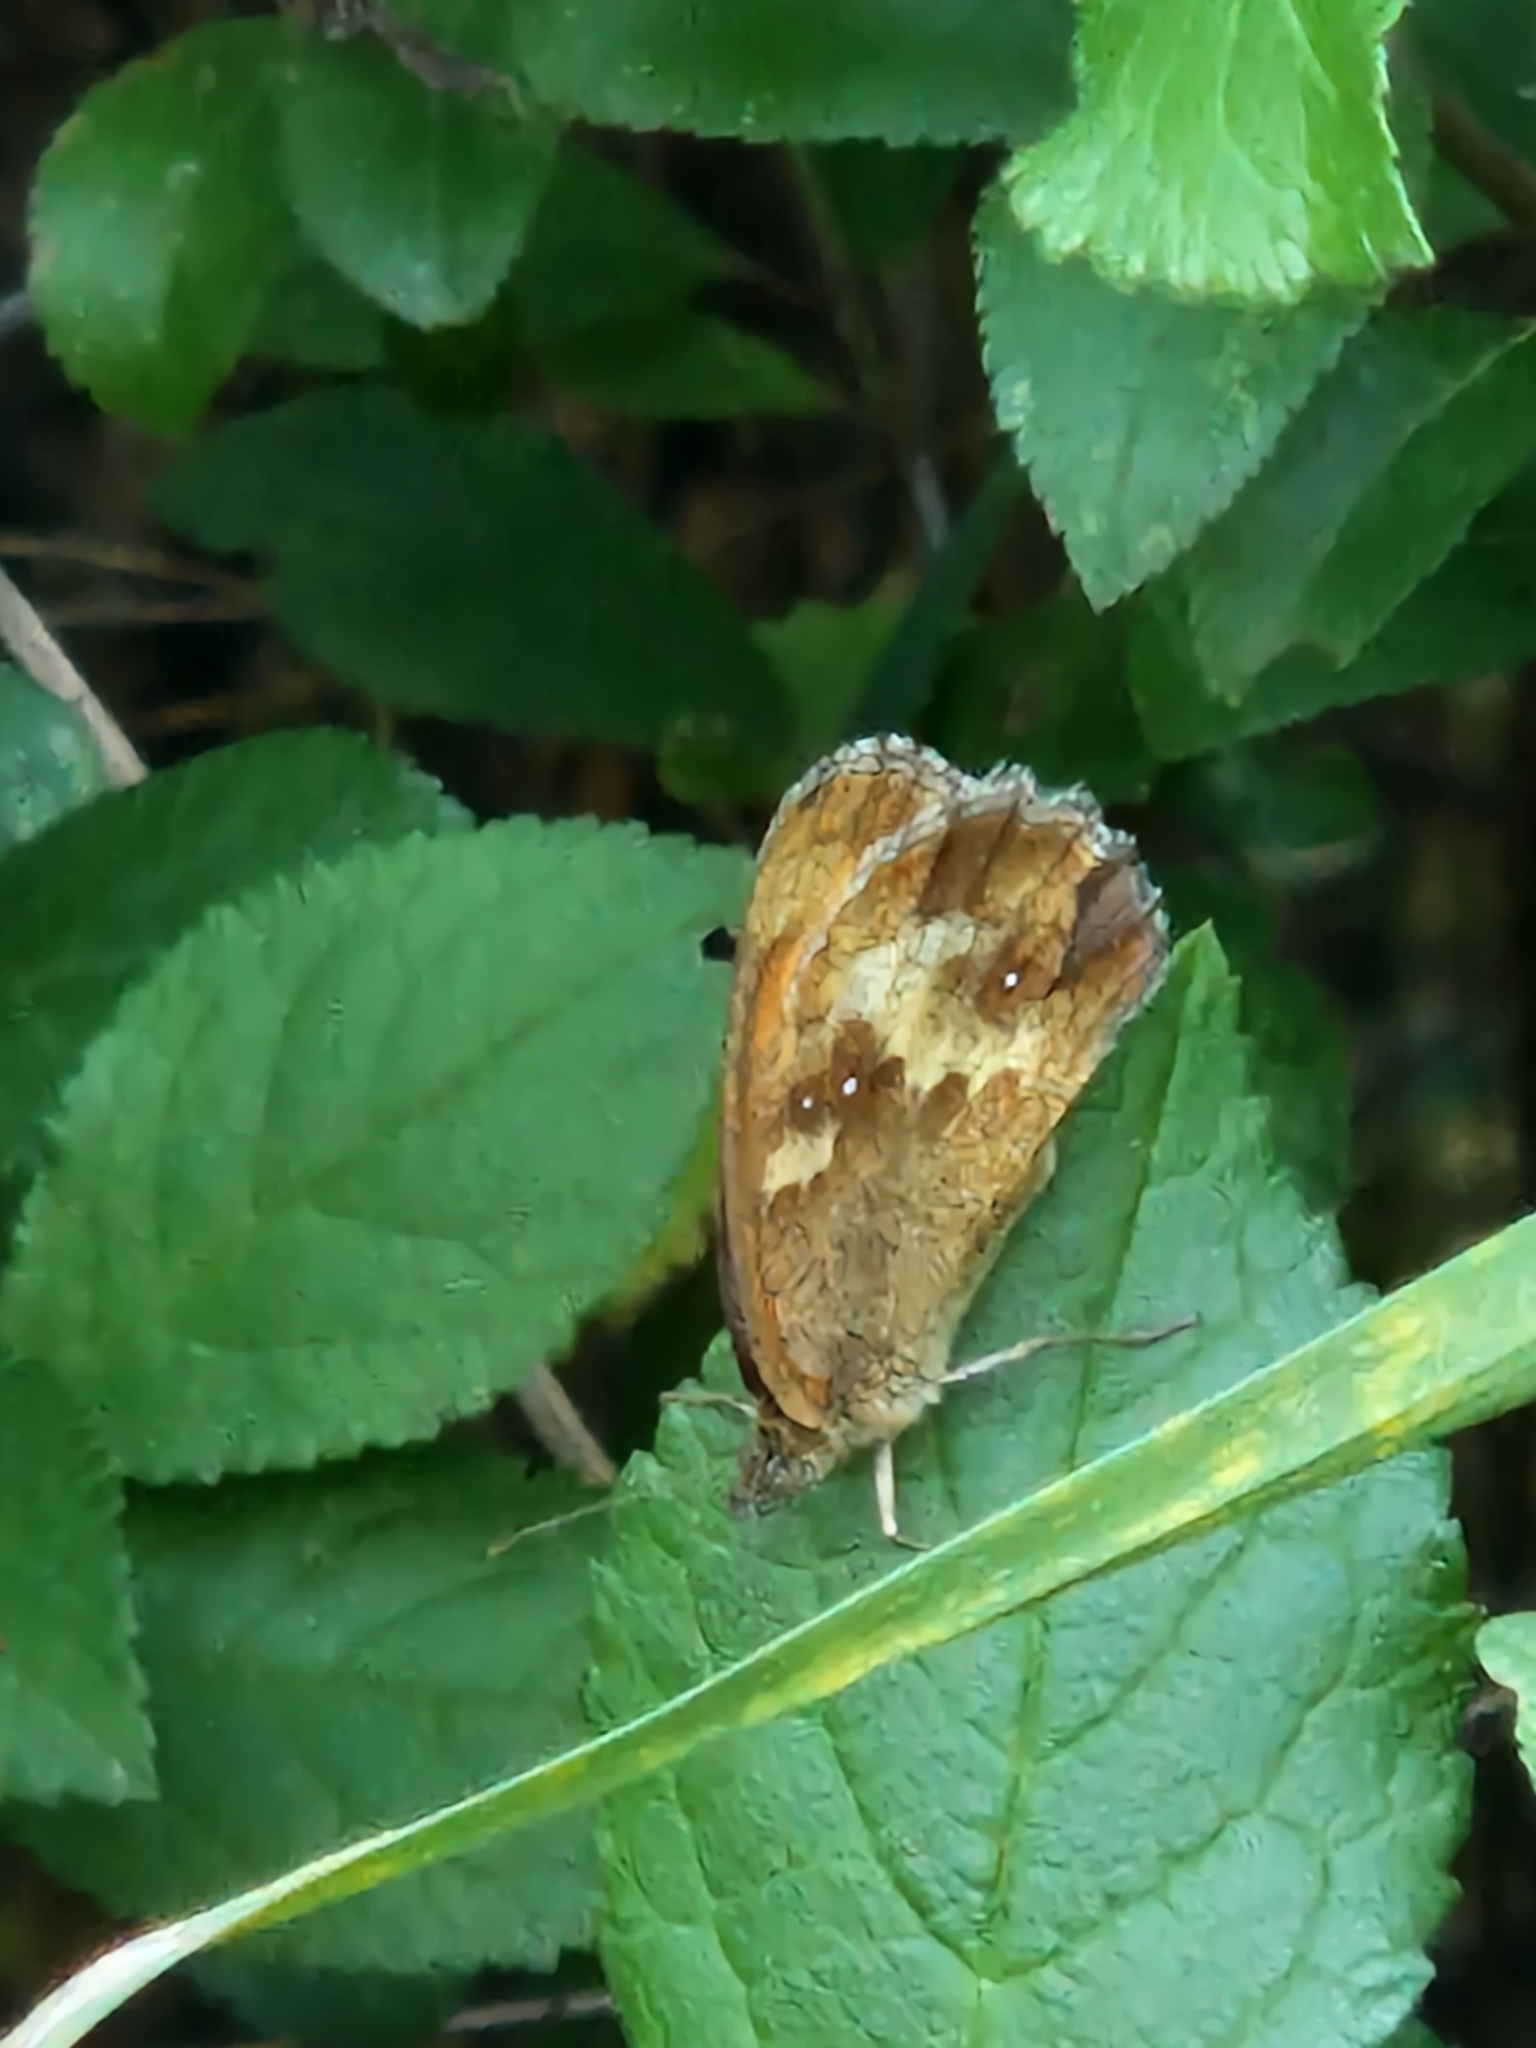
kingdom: Animalia
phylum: Arthropoda
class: Insecta
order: Lepidoptera
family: Nymphalidae
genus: Pyronia
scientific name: Pyronia tithonus
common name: Gatekeeper
